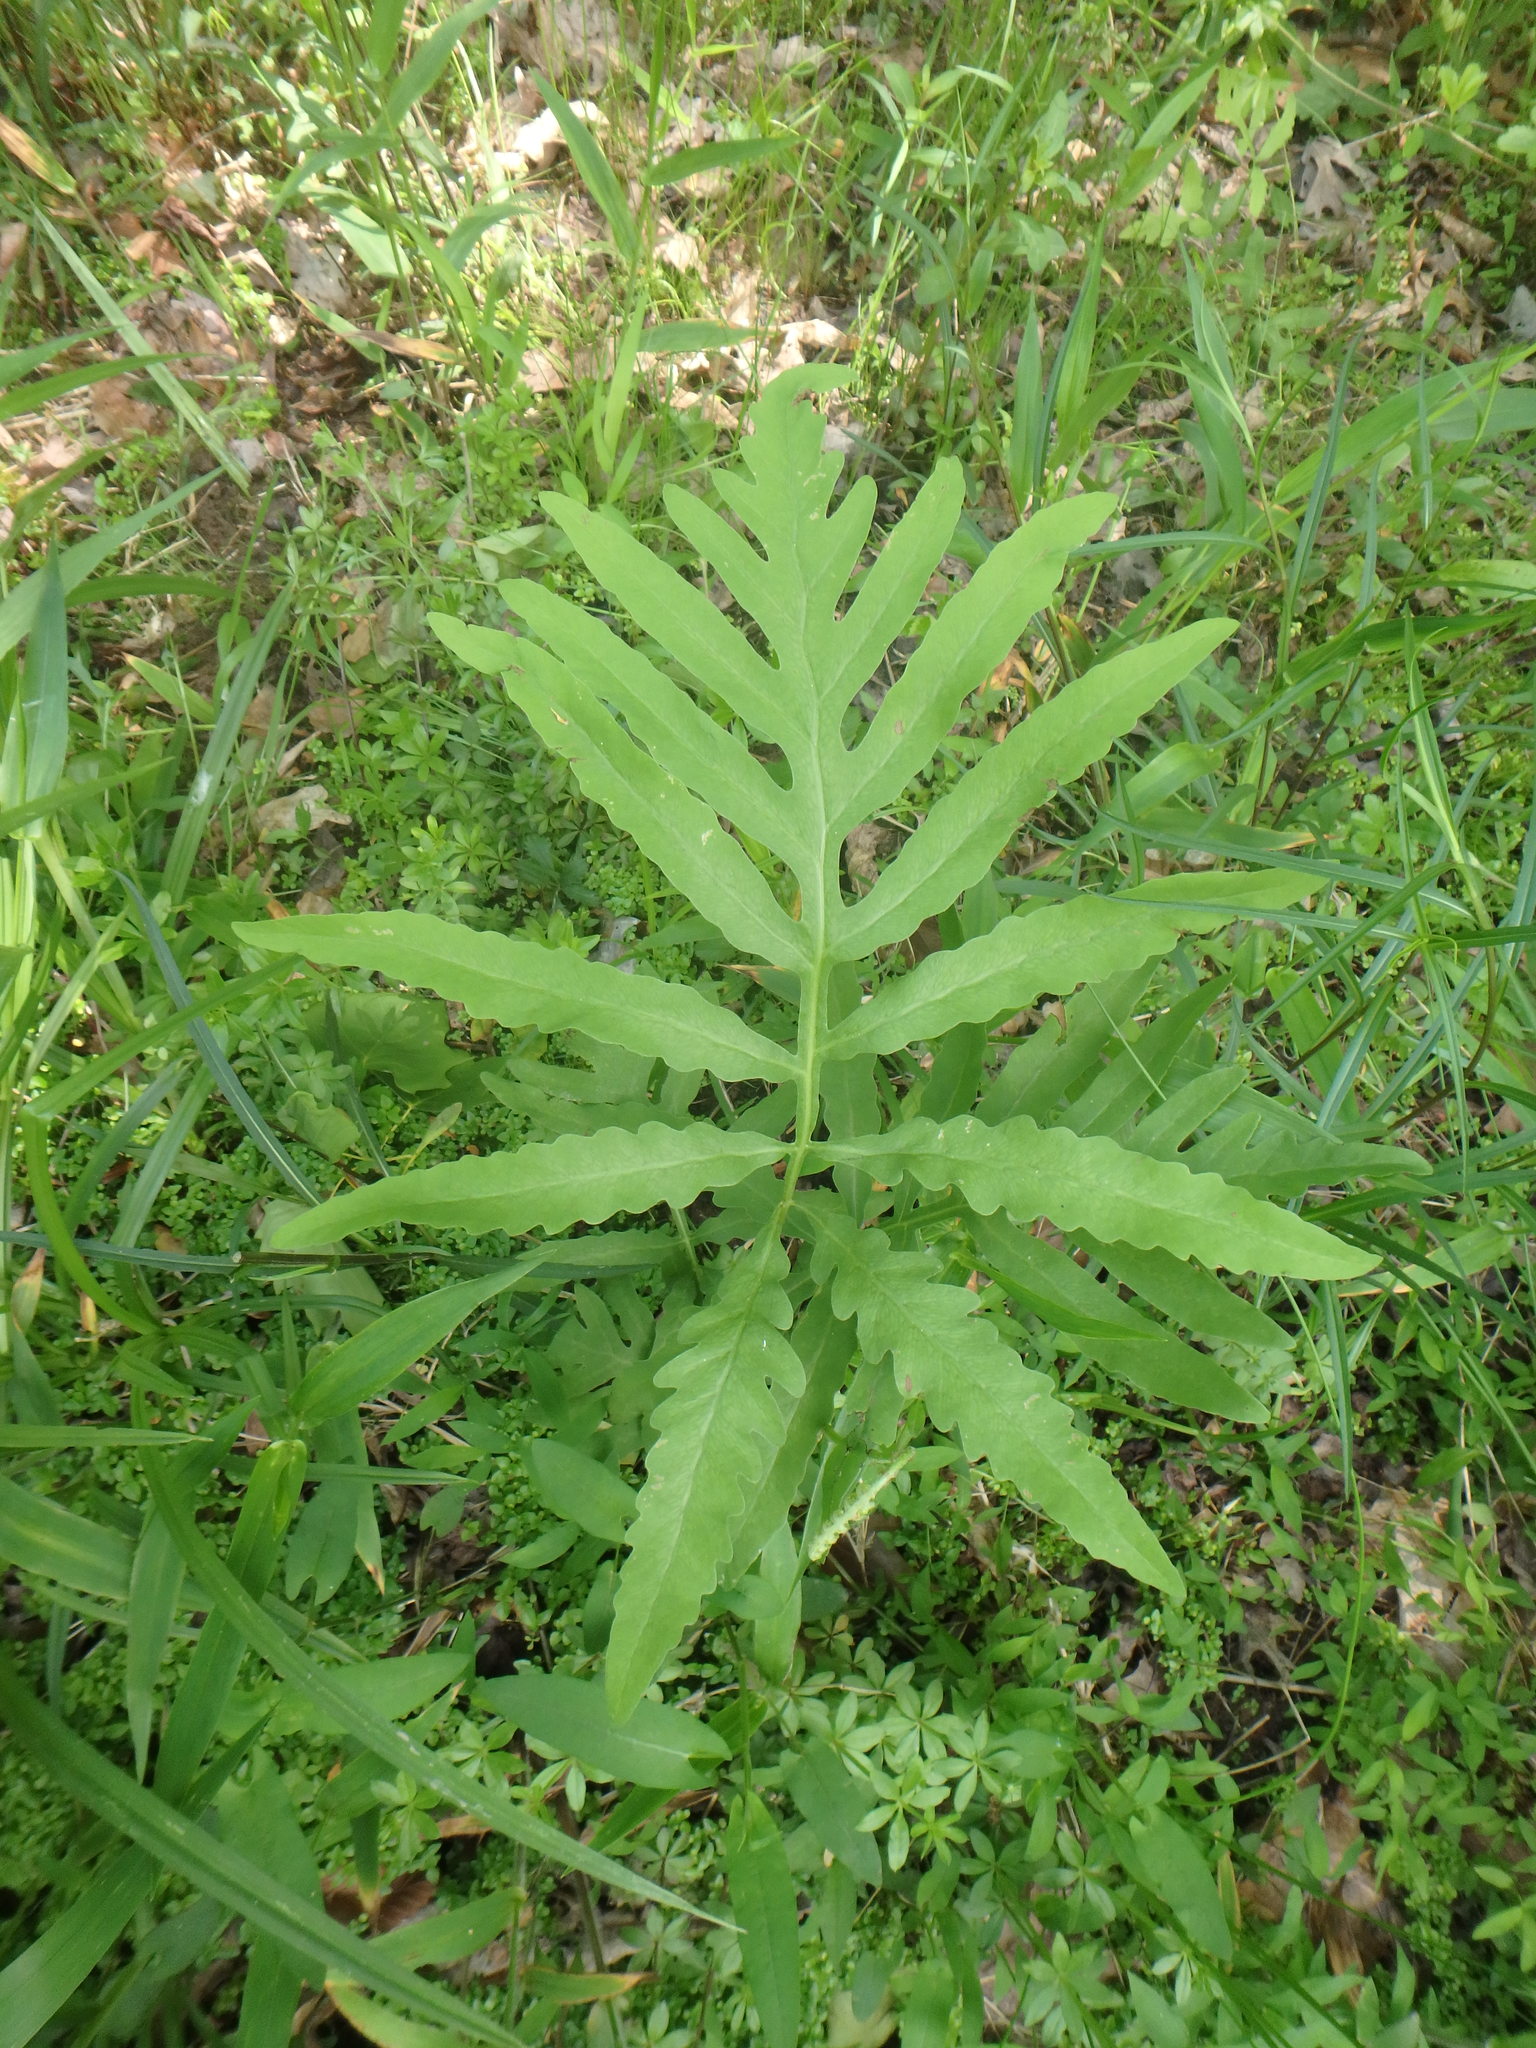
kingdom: Plantae
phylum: Tracheophyta
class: Polypodiopsida
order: Polypodiales
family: Onocleaceae
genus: Onoclea
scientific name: Onoclea sensibilis
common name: Sensitive fern
